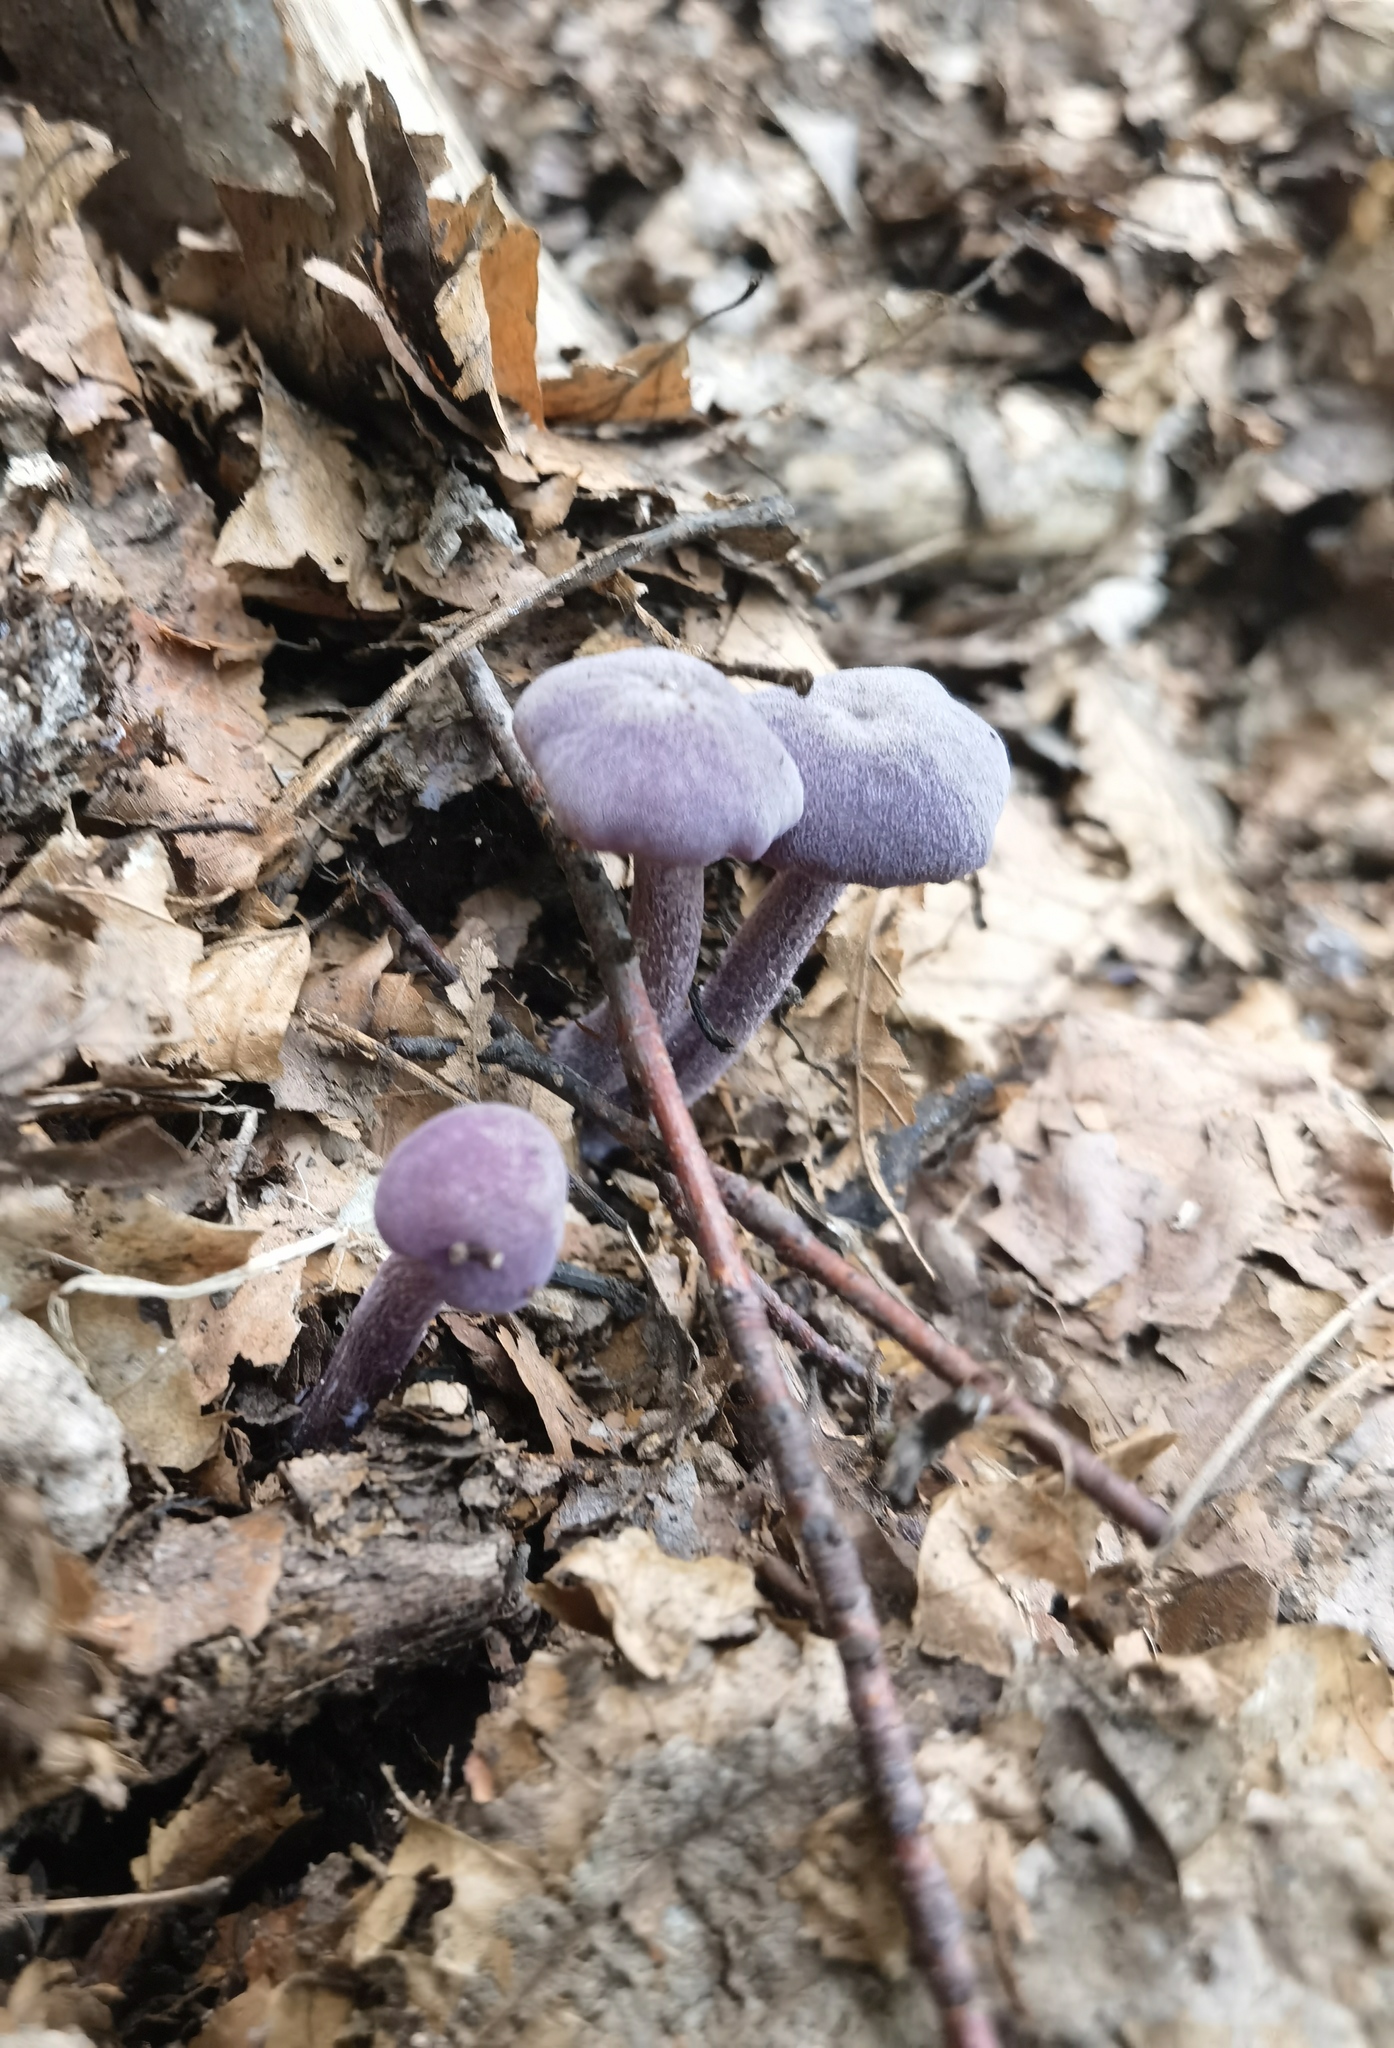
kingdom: Fungi
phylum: Basidiomycota
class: Agaricomycetes
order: Agaricales
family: Hydnangiaceae
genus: Laccaria
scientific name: Laccaria amethystina
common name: Amethyst deceiver
